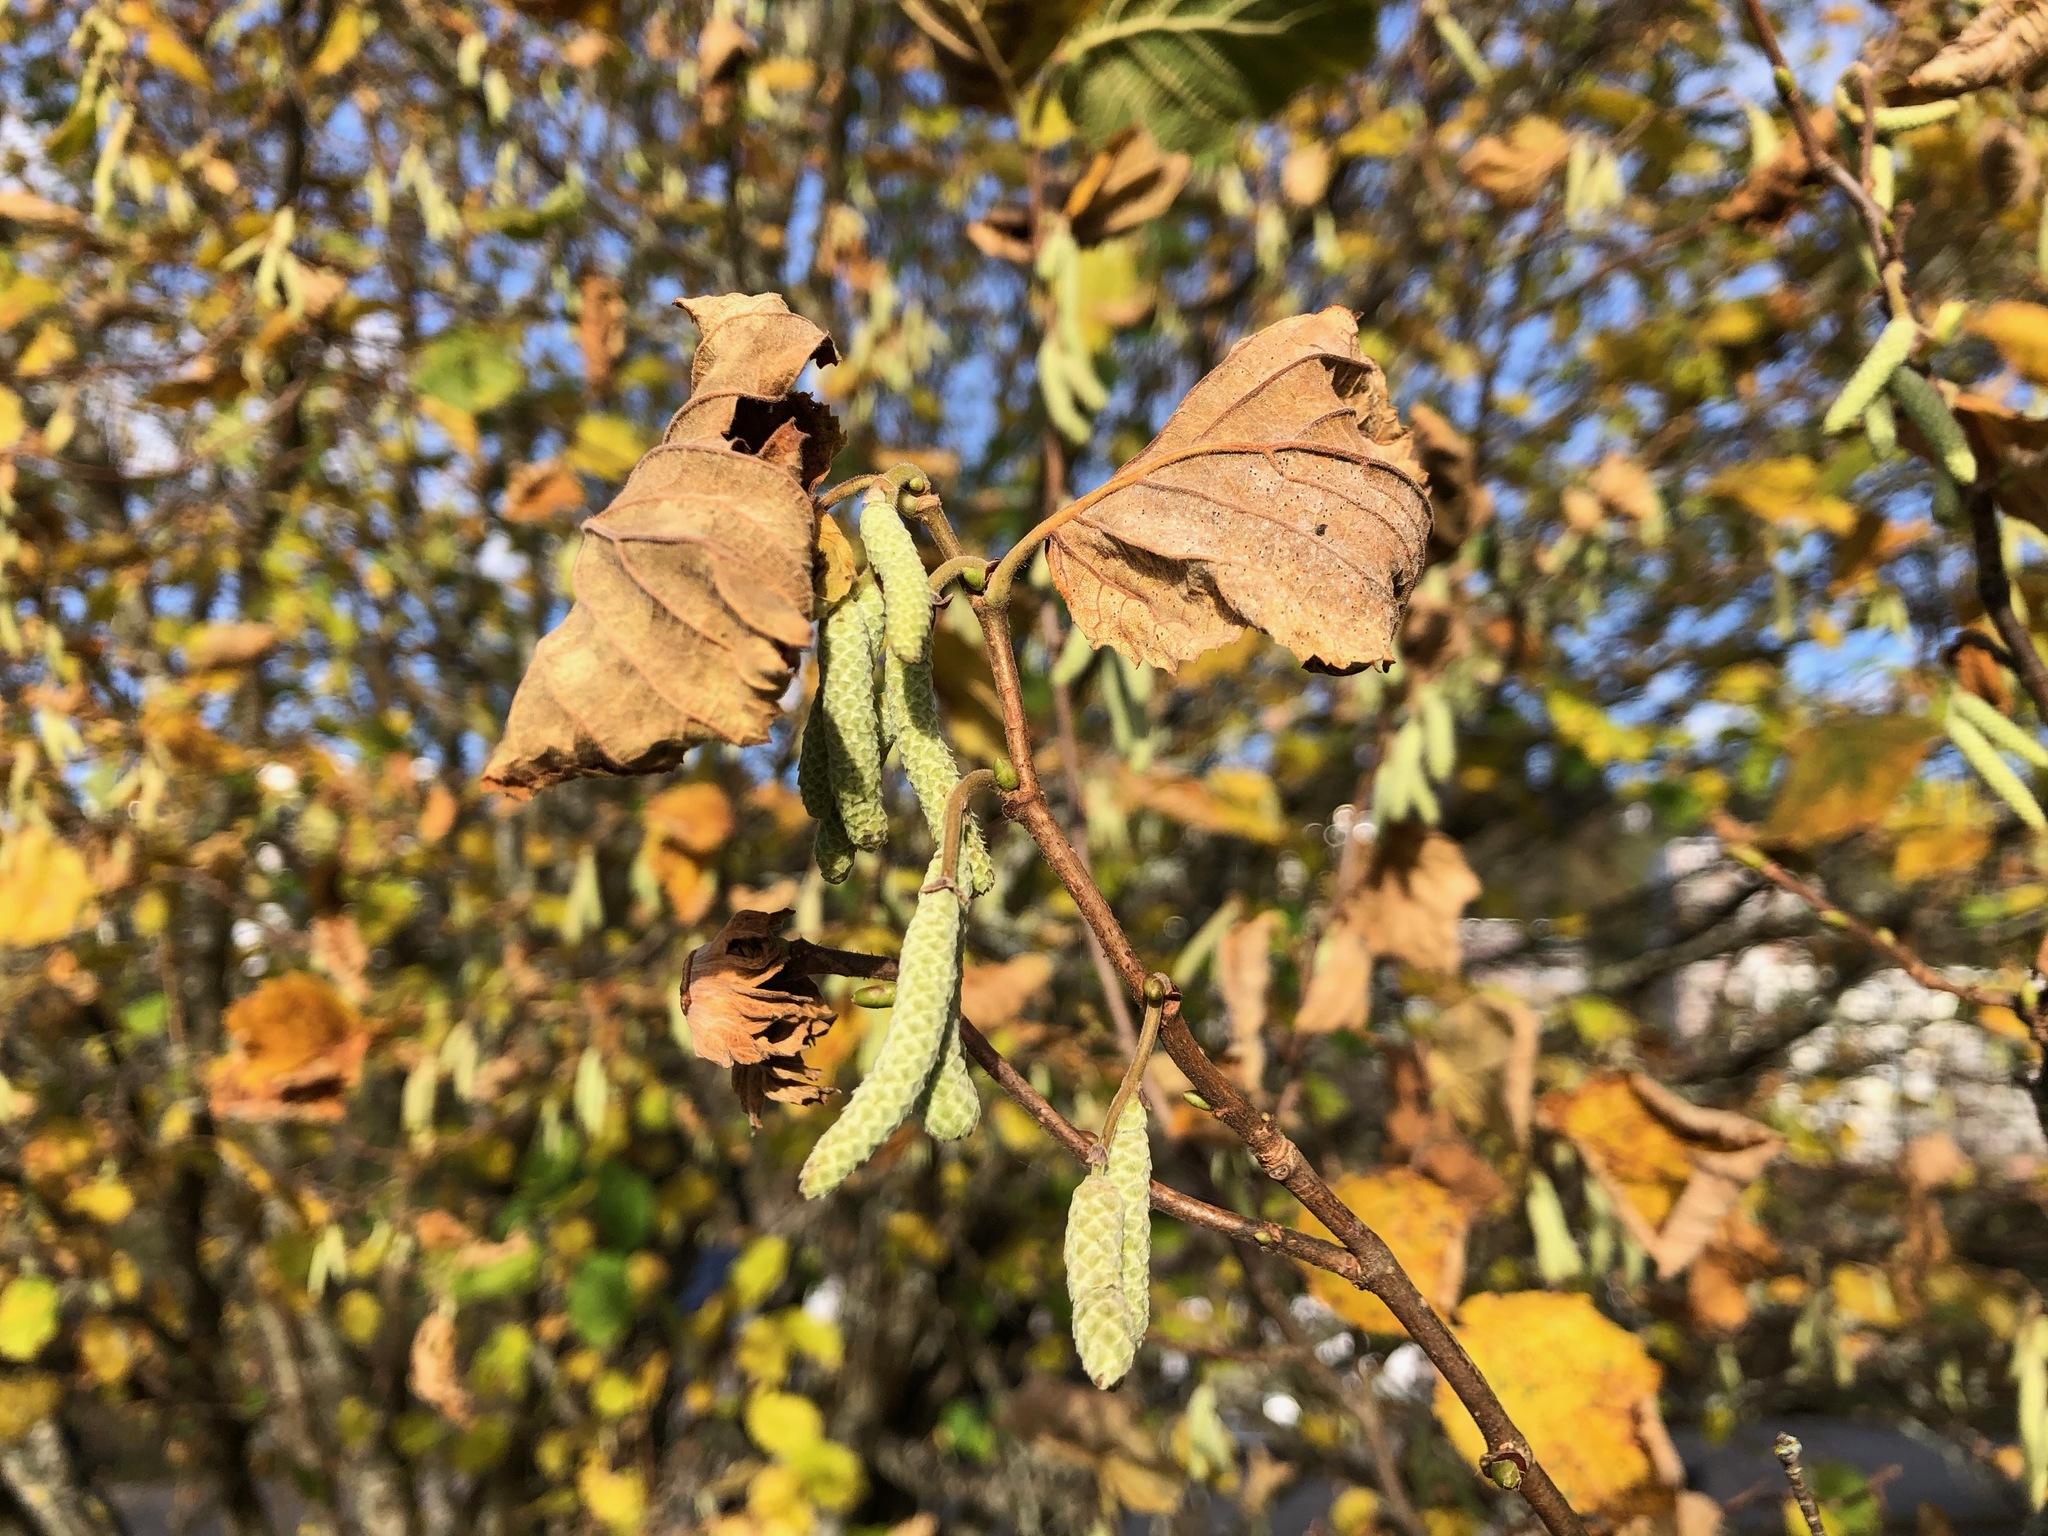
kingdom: Plantae
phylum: Tracheophyta
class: Magnoliopsida
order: Fagales
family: Betulaceae
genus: Corylus
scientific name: Corylus avellana
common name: European hazel
